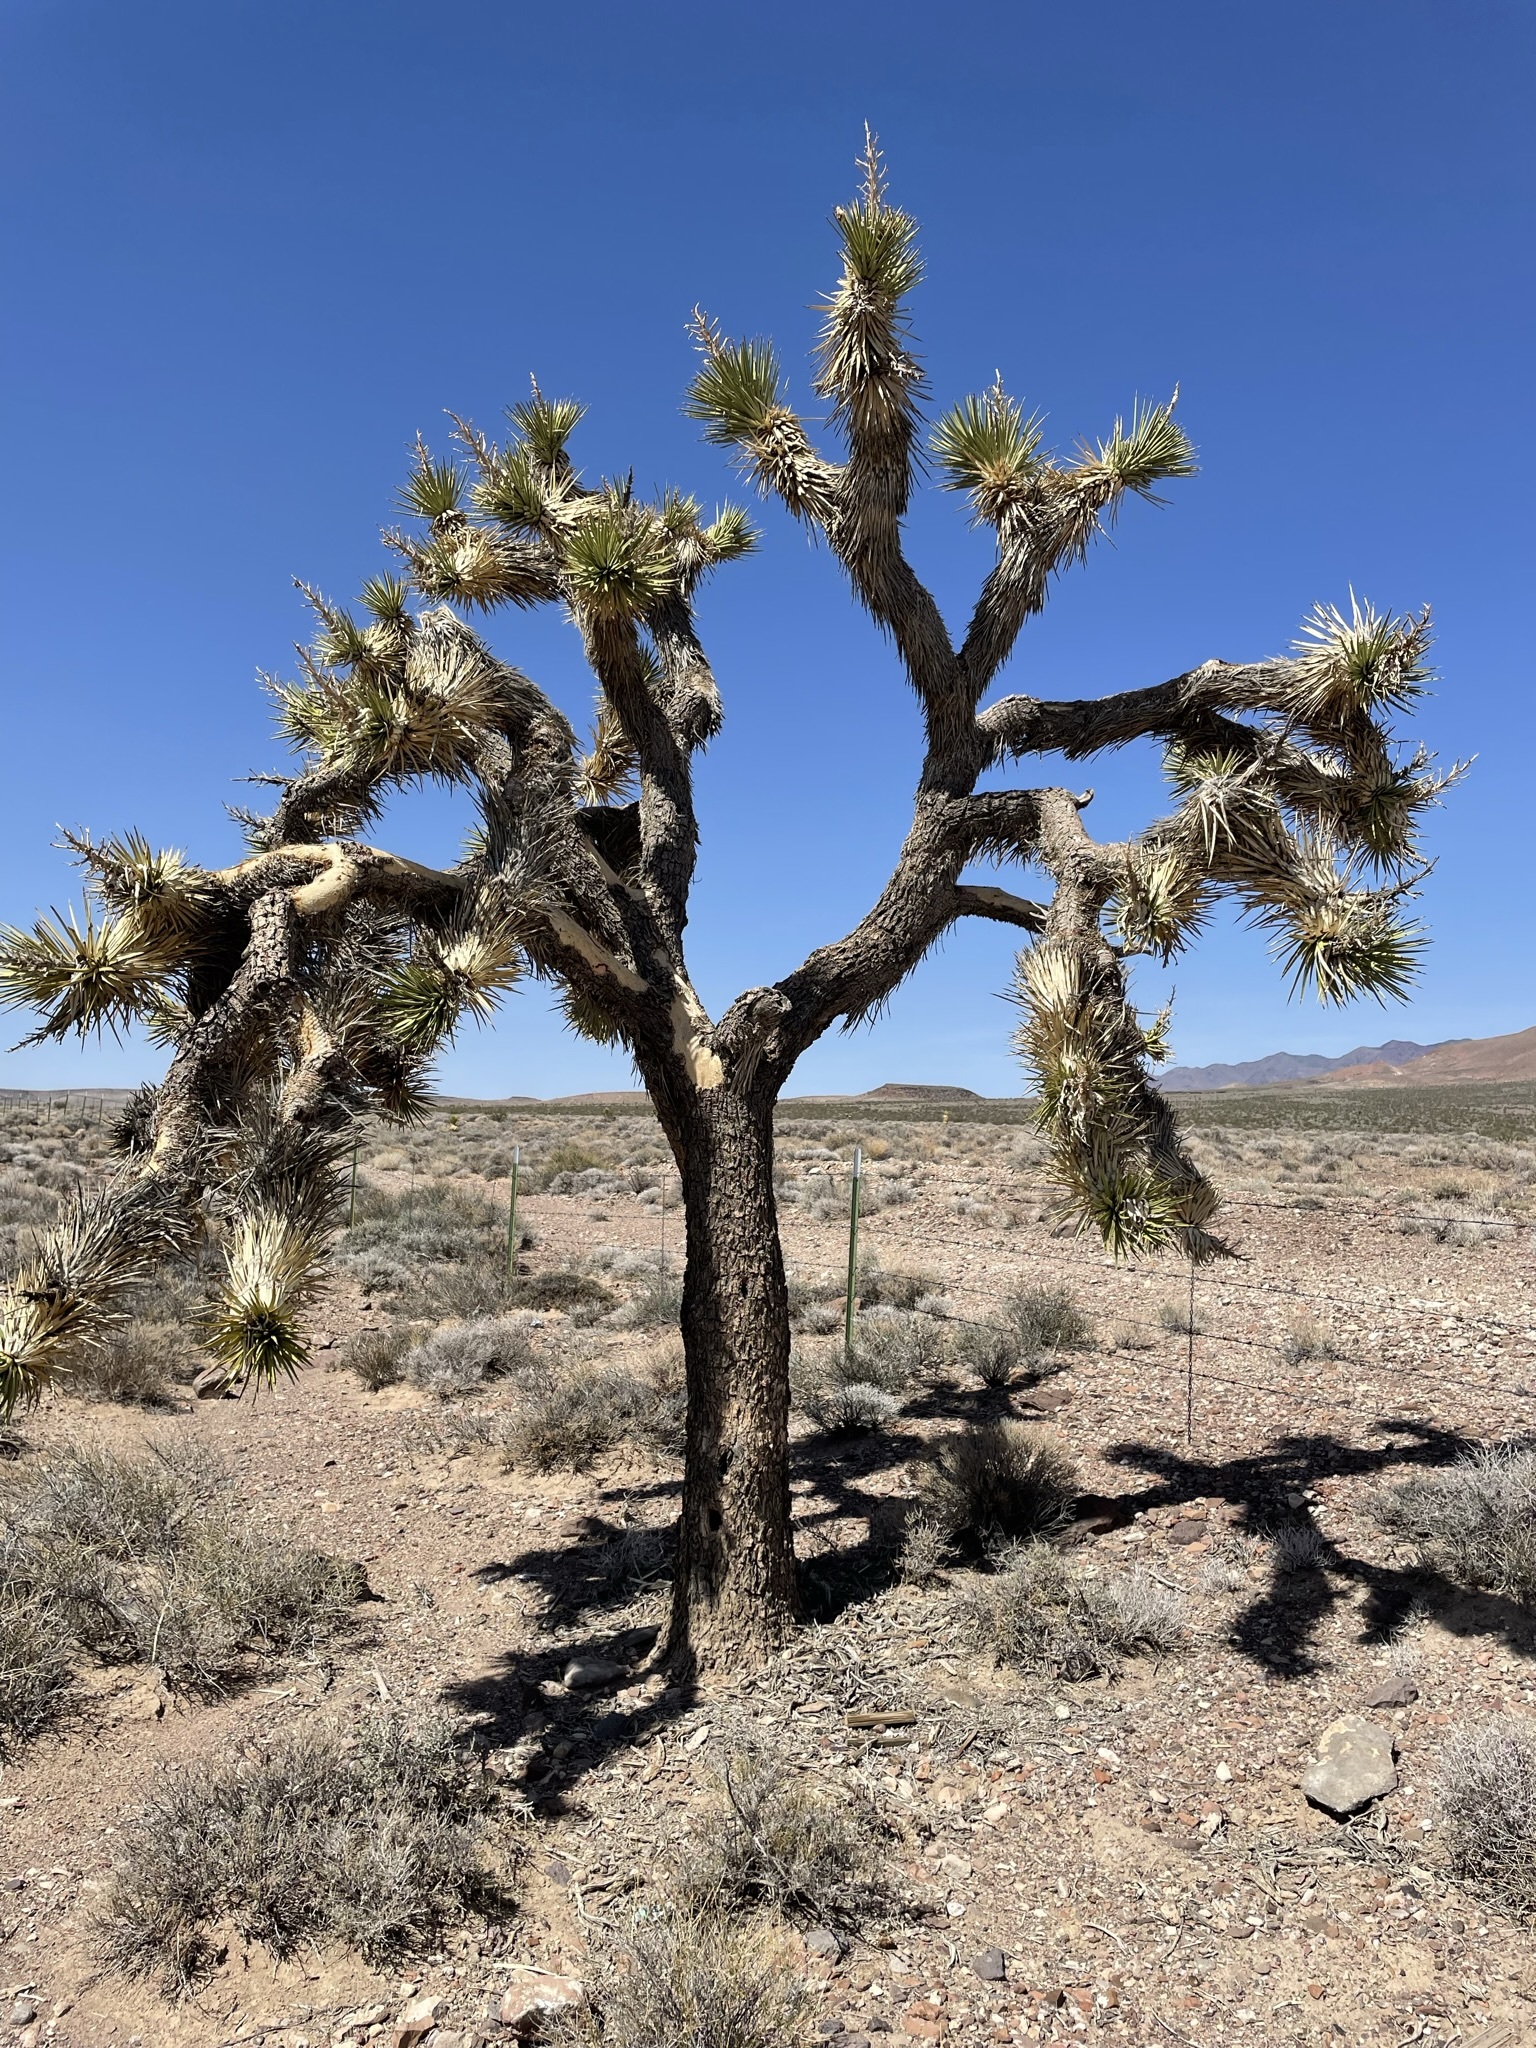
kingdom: Plantae
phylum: Tracheophyta
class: Liliopsida
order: Asparagales
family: Asparagaceae
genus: Yucca
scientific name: Yucca brevifolia
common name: Joshua tree
